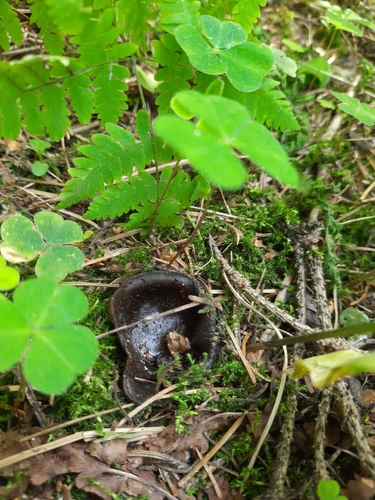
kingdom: Fungi
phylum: Ascomycota
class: Pezizomycetes
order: Pezizales
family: Sarcosomataceae
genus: Sarcosoma
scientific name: Sarcosoma globosum
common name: Charred-pancake cup
